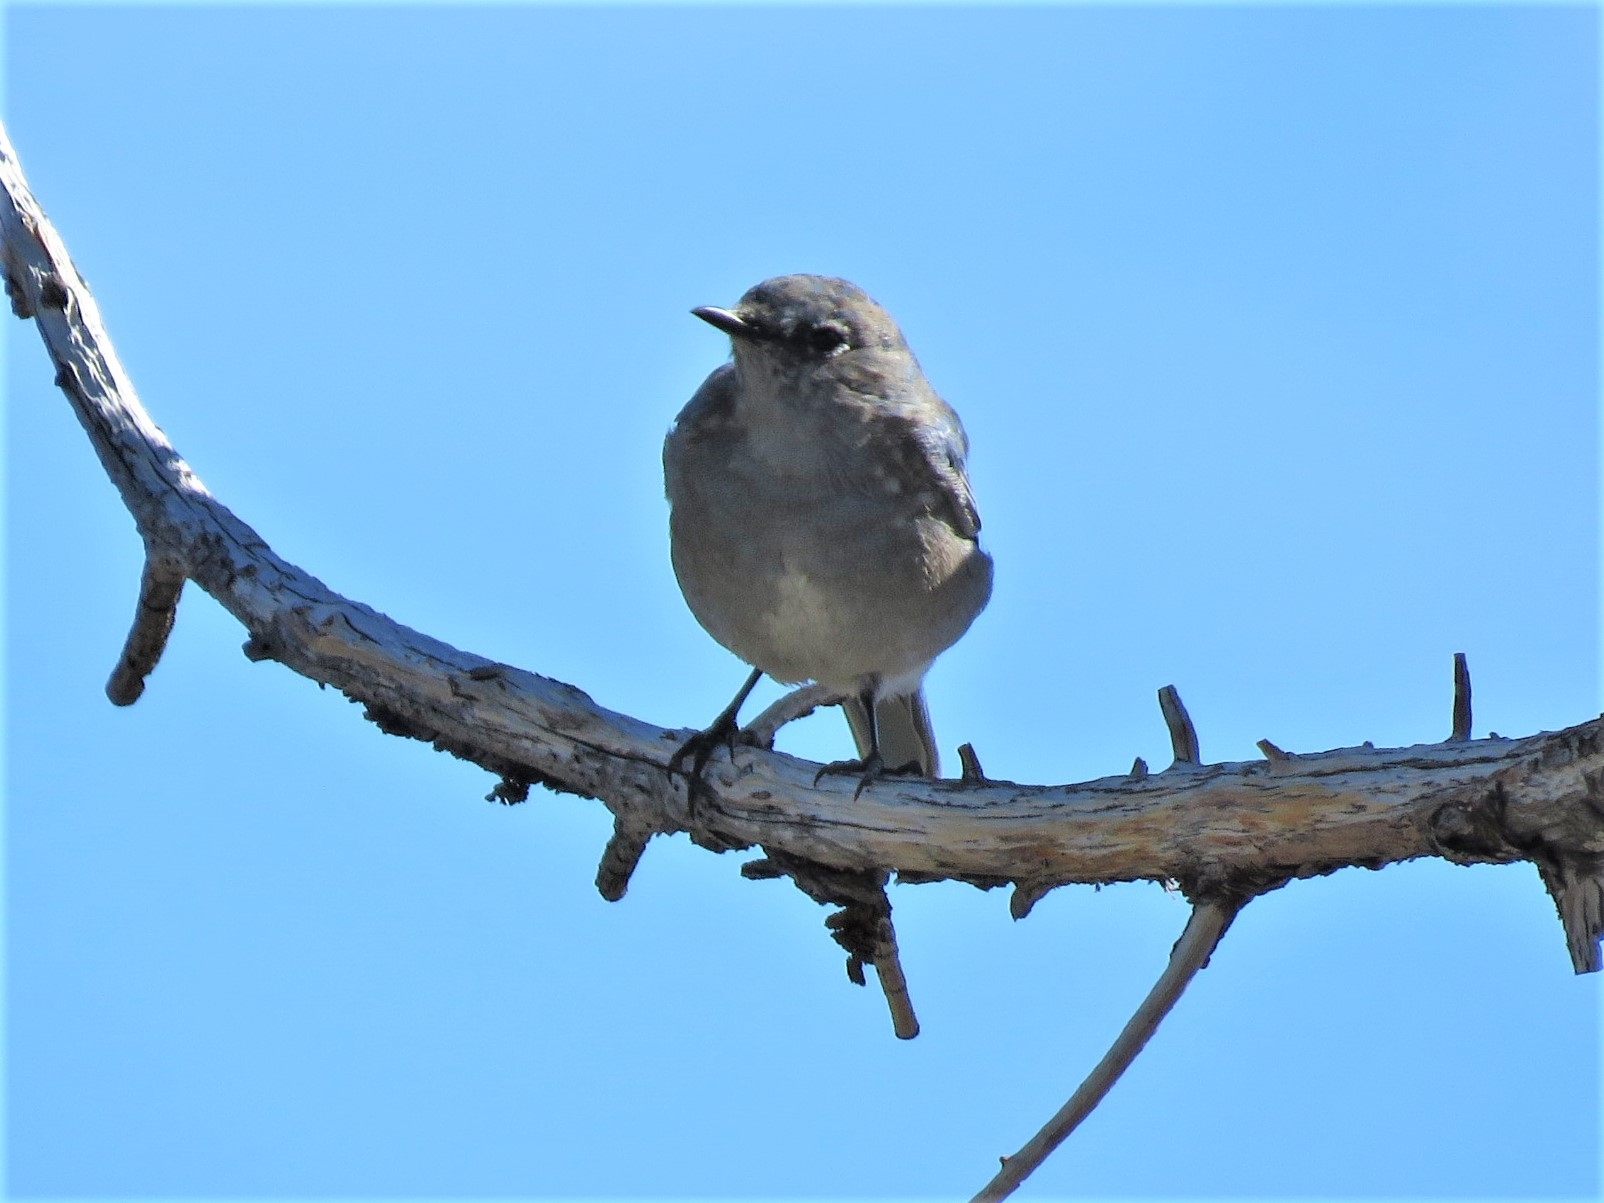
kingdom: Animalia
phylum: Chordata
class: Aves
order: Passeriformes
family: Turdidae
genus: Sialia
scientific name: Sialia currucoides
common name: Mountain bluebird
